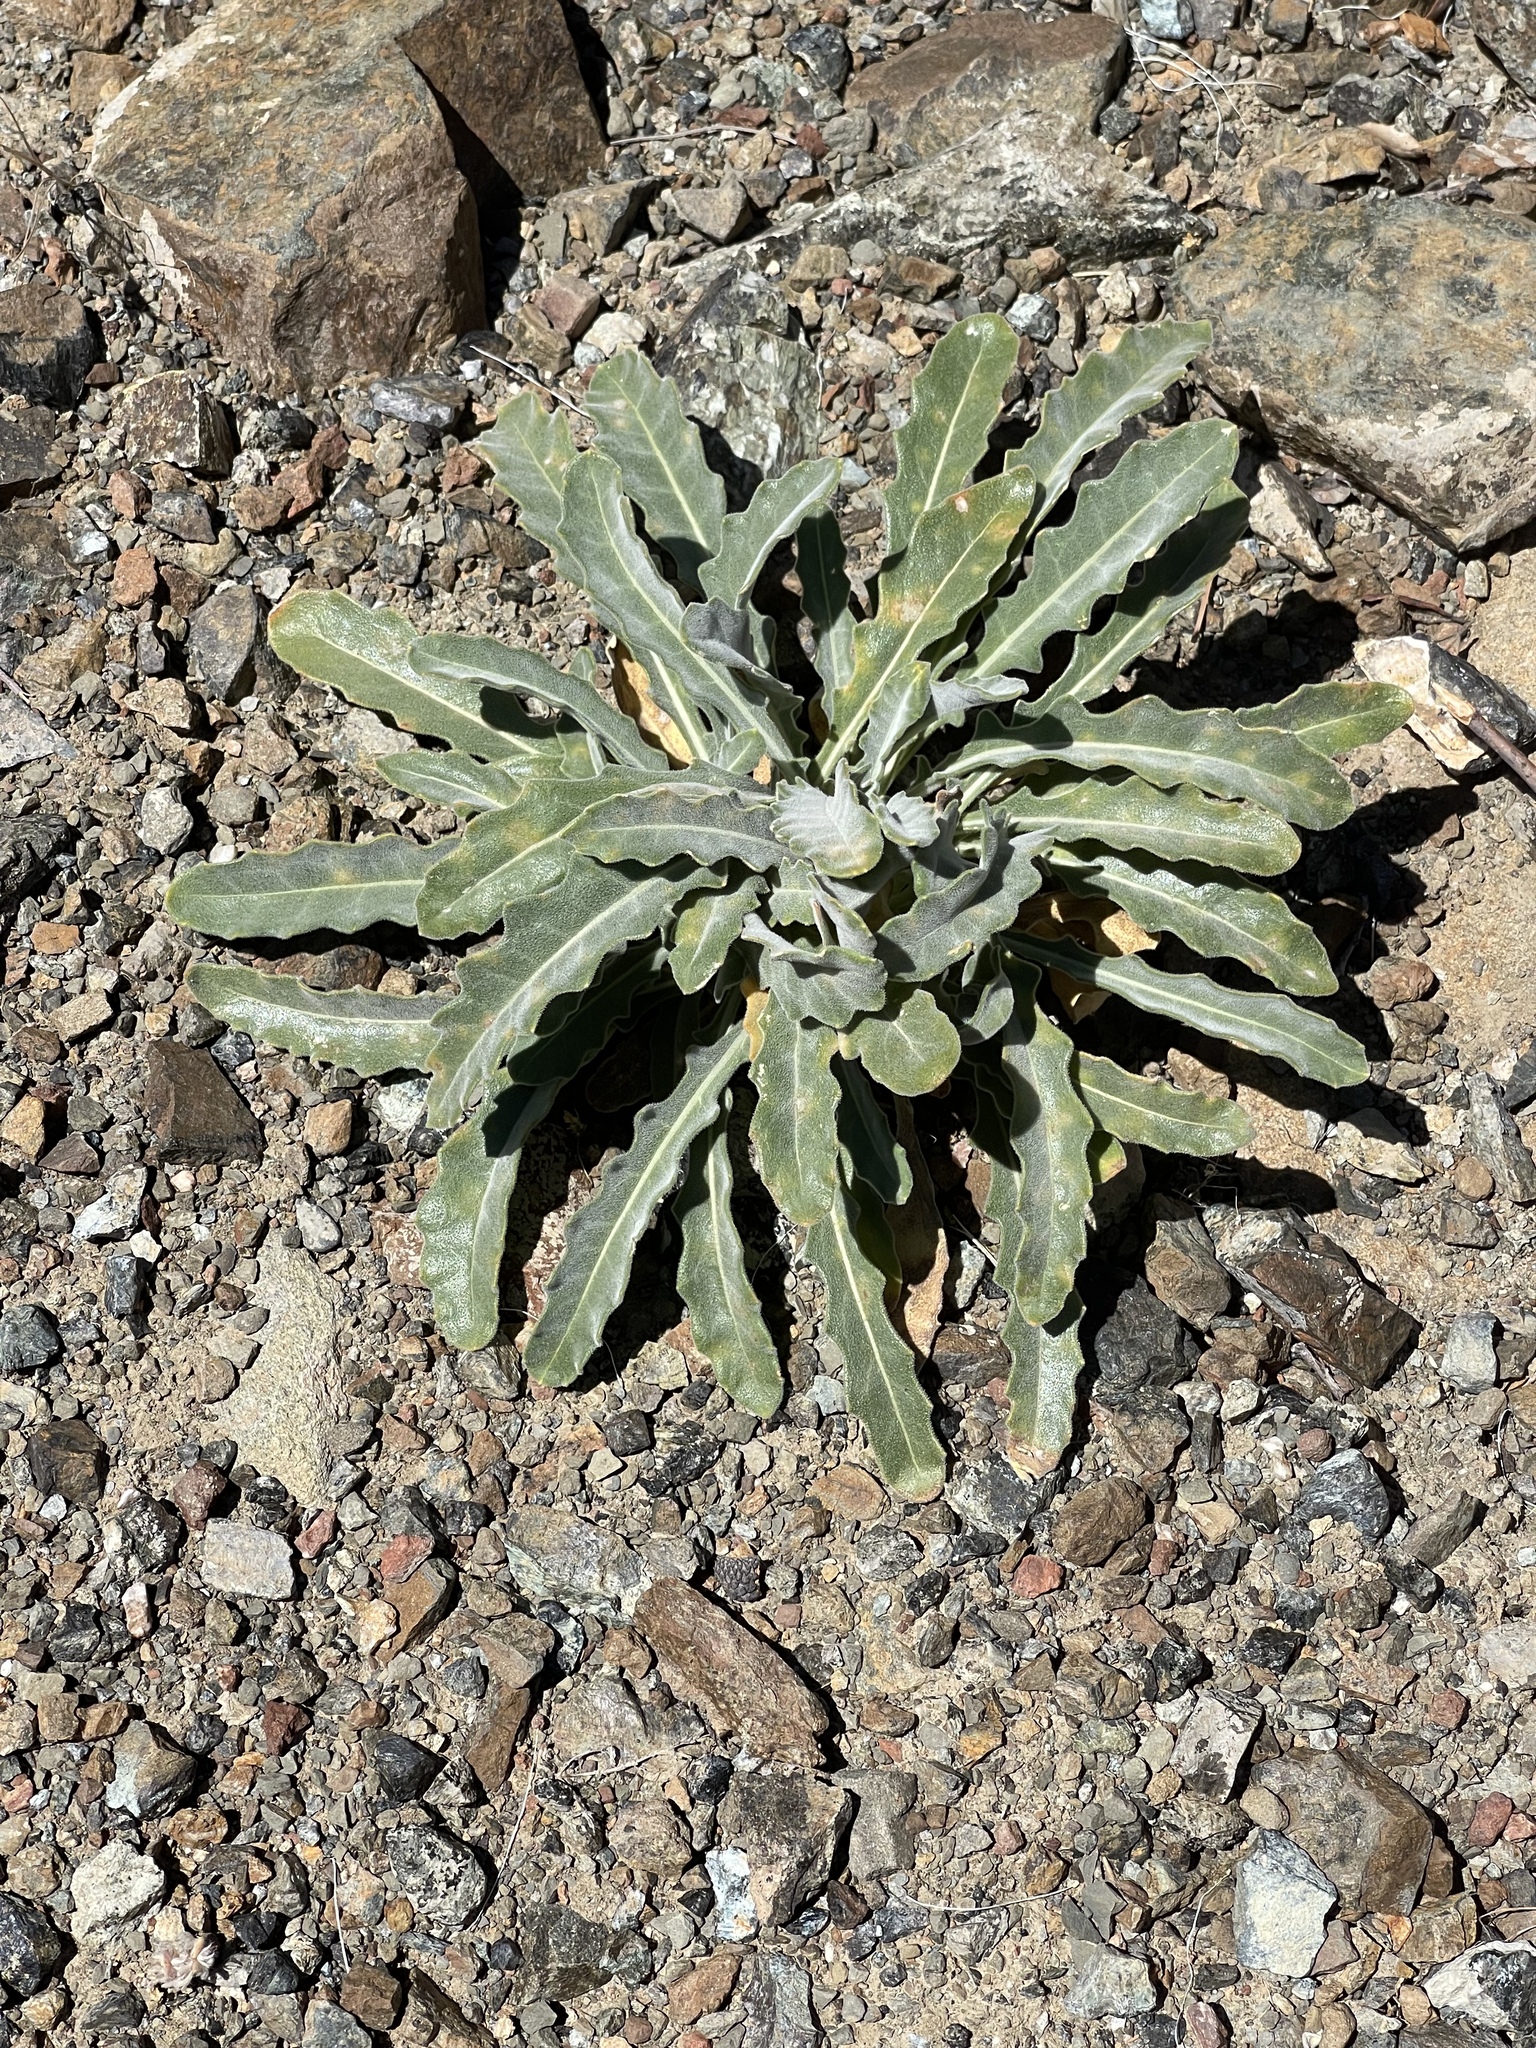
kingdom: Plantae
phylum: Tracheophyta
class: Magnoliopsida
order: Cornales
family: Loasaceae
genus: Mentzelia
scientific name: Mentzelia laevicaulis
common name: Smooth-stem blazingstar
